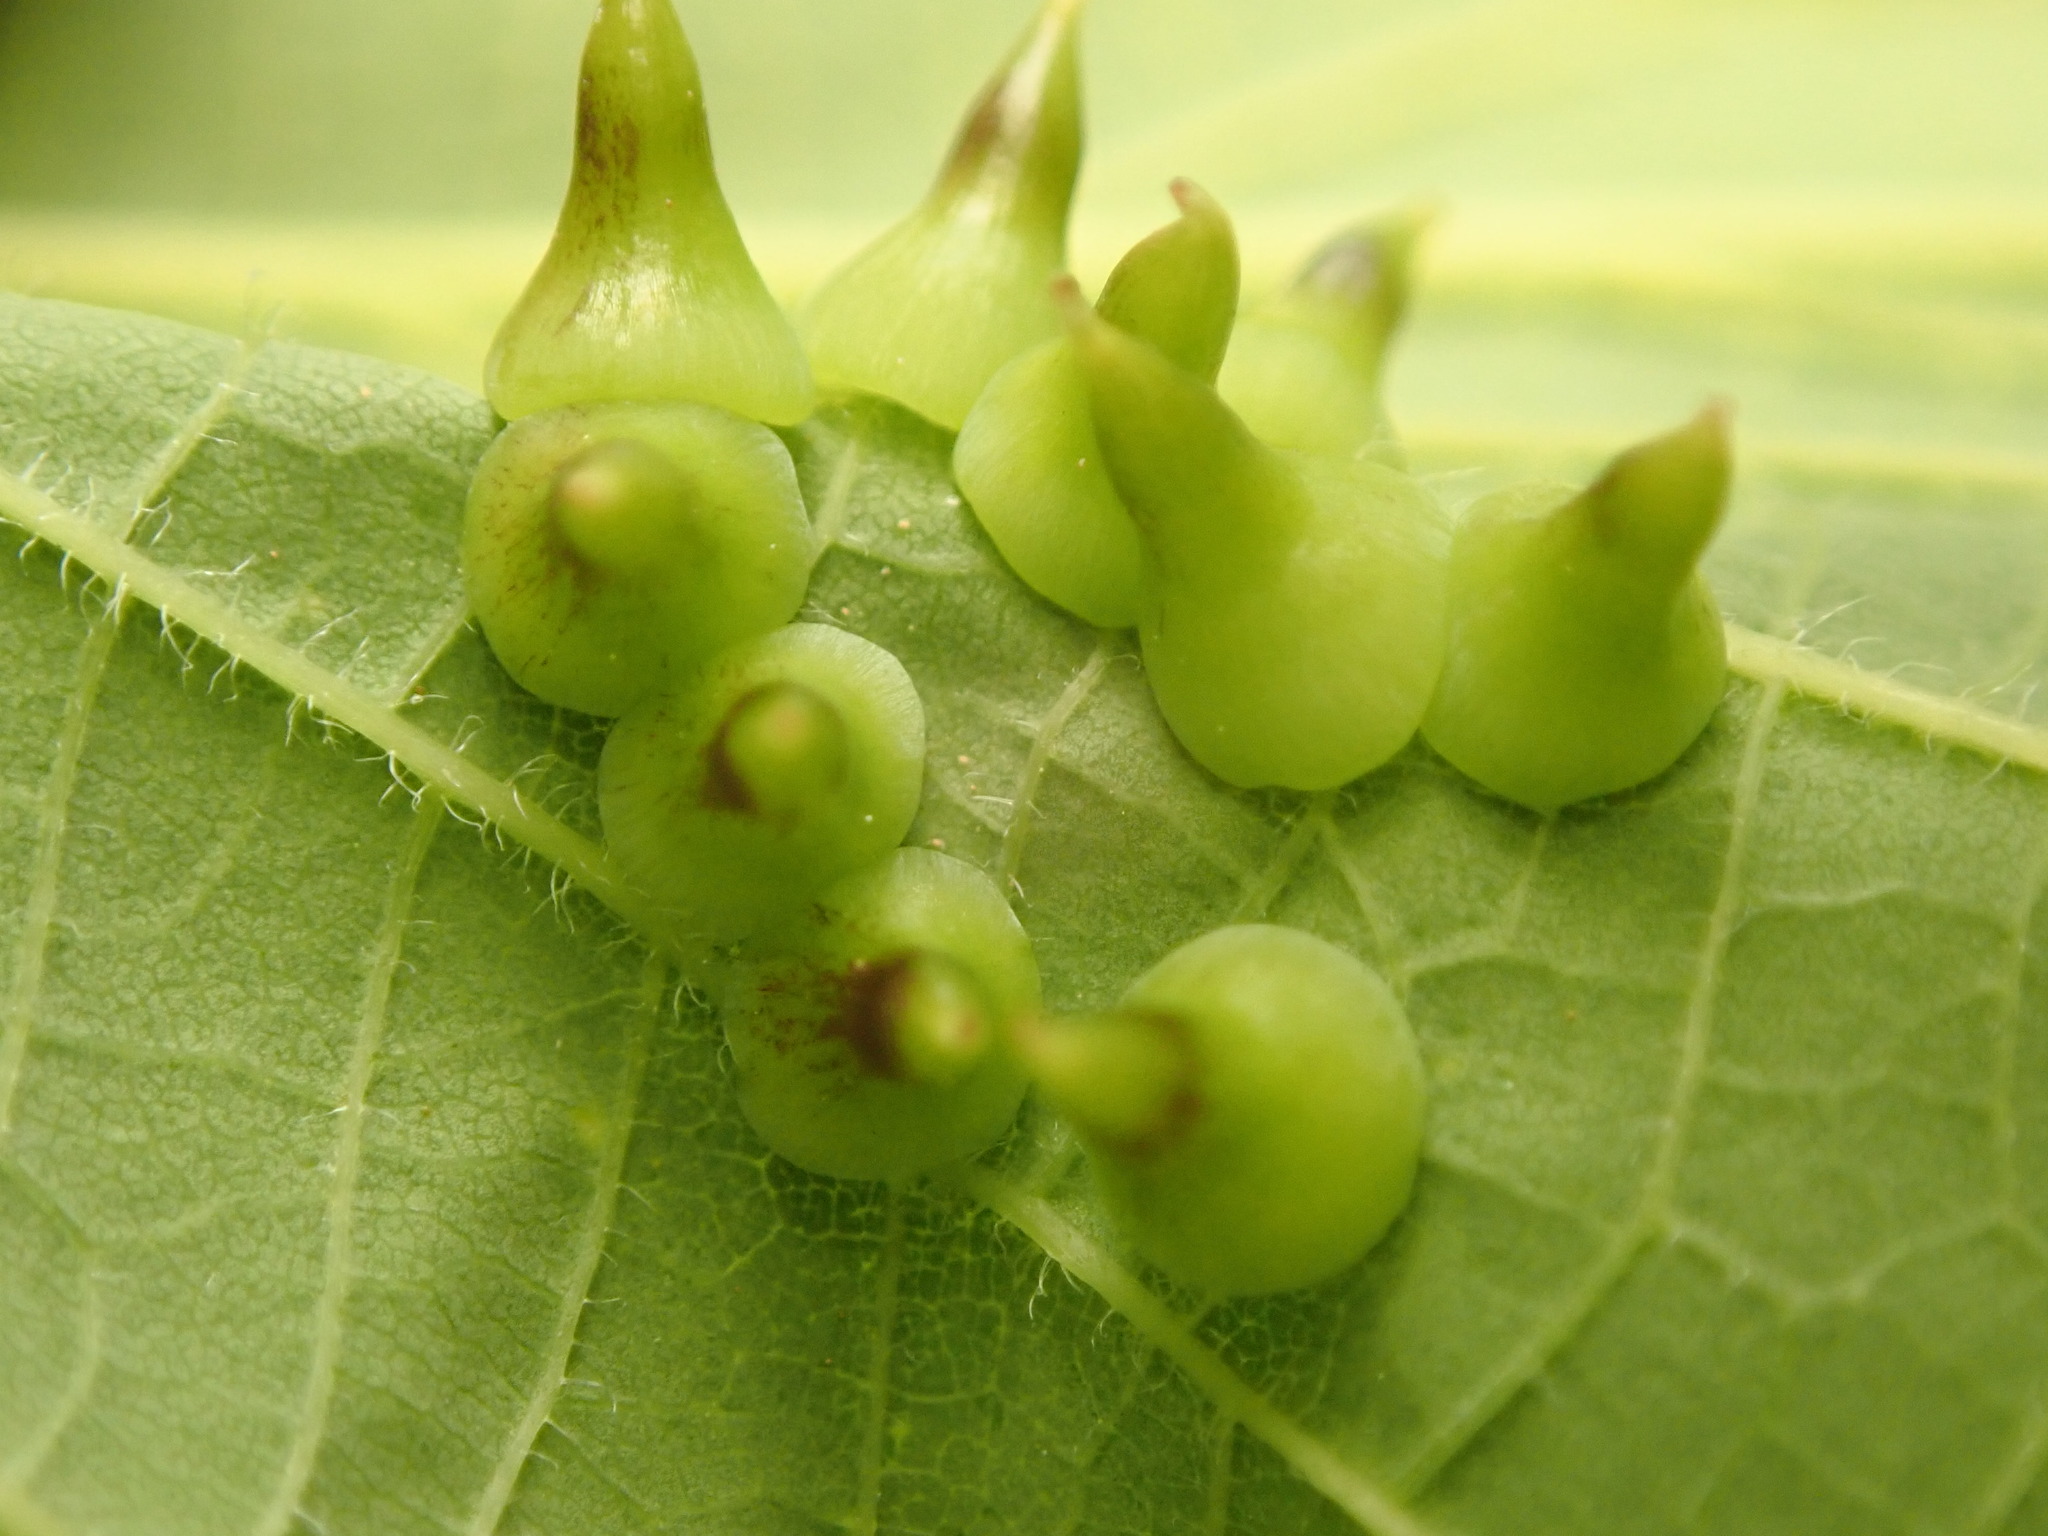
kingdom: Animalia
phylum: Arthropoda
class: Insecta
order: Diptera
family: Cecidomyiidae
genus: Celticecis
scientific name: Celticecis spiniformis
